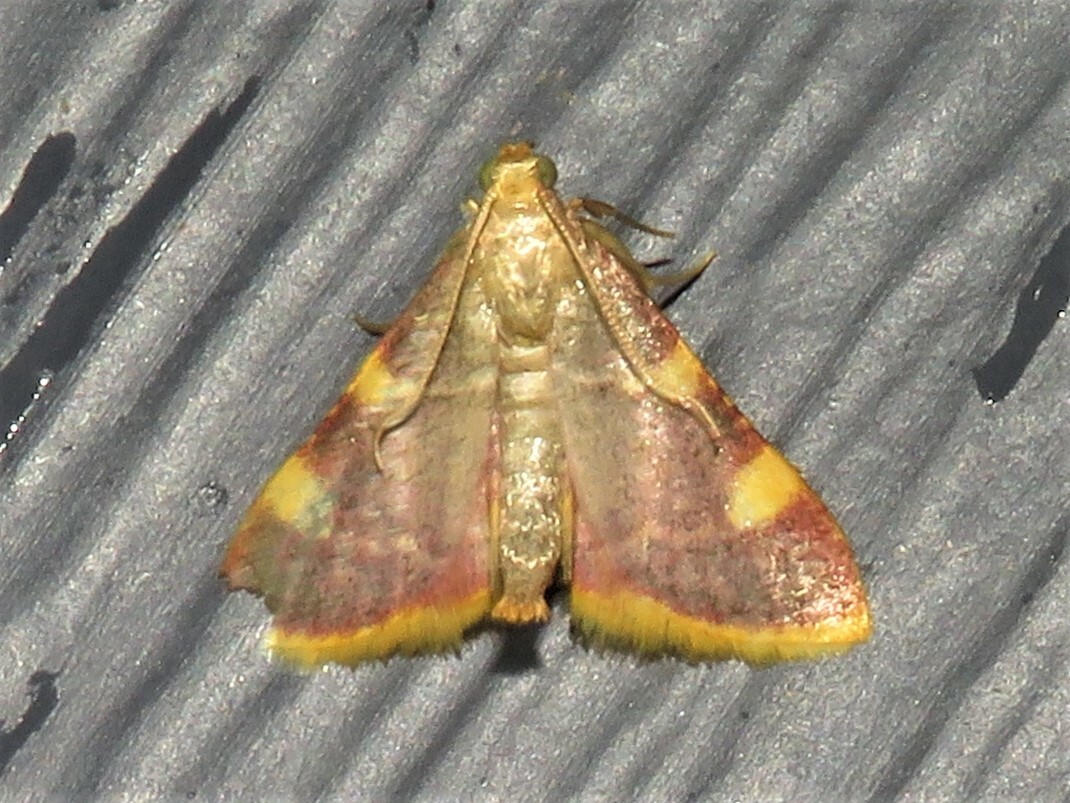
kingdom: Animalia
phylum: Arthropoda
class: Insecta
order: Lepidoptera
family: Pyralidae
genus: Hypsopygia
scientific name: Hypsopygia costalis
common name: Gold triangle
